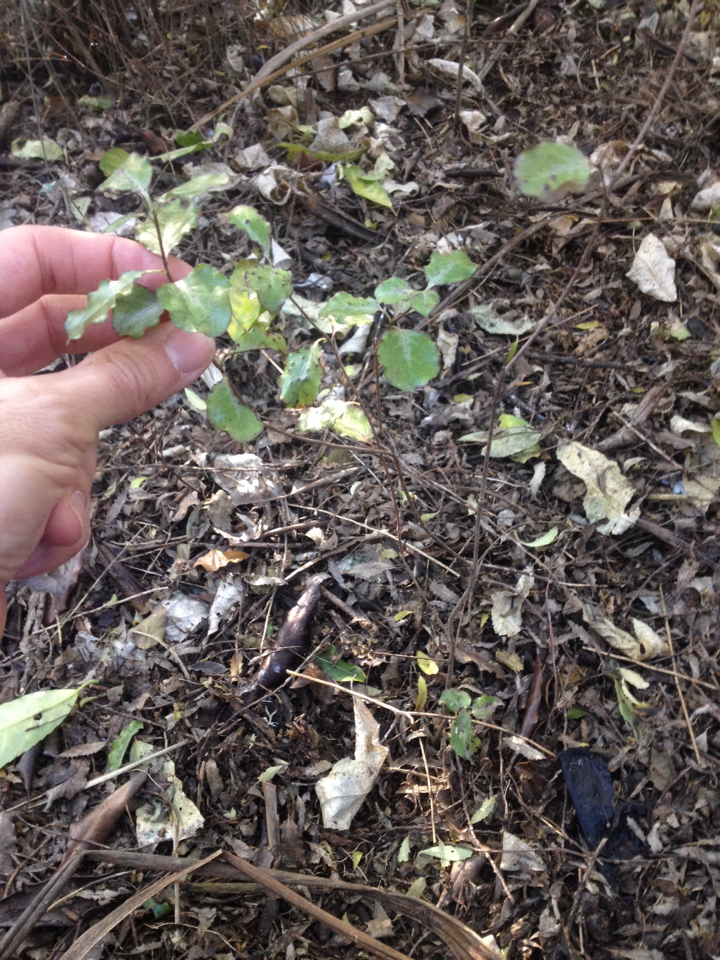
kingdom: Plantae
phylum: Tracheophyta
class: Magnoliopsida
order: Apiales
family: Pittosporaceae
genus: Pittosporum
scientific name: Pittosporum tenuifolium
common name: Kohuhu
